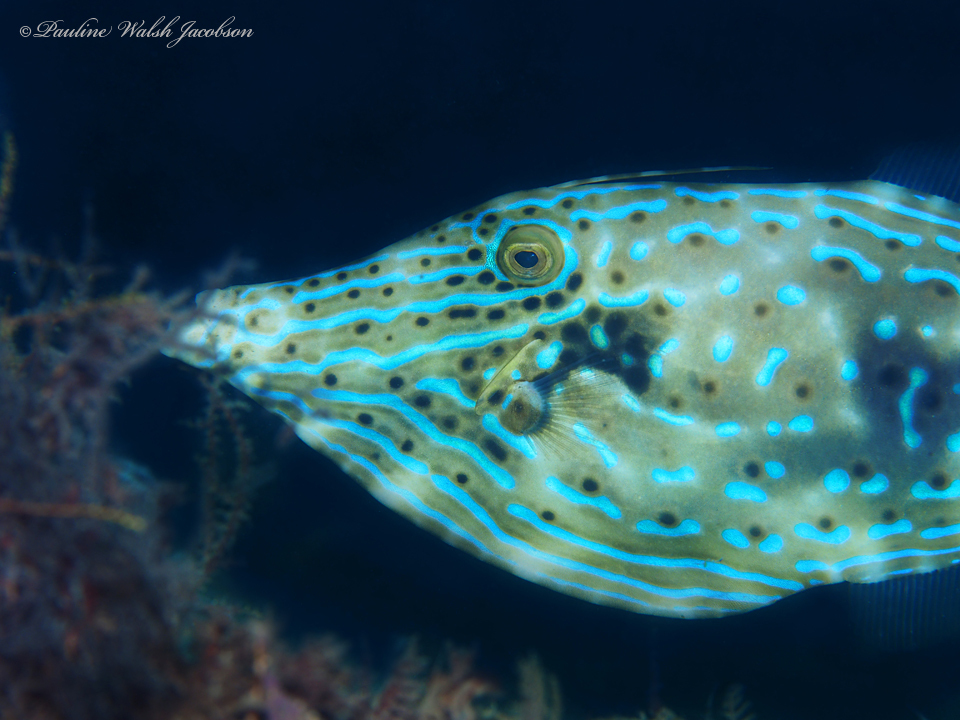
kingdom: Animalia
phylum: Chordata
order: Tetraodontiformes
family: Monacanthidae
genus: Aluterus
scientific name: Aluterus scriptus
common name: Scribbled leatherjacket filefish
